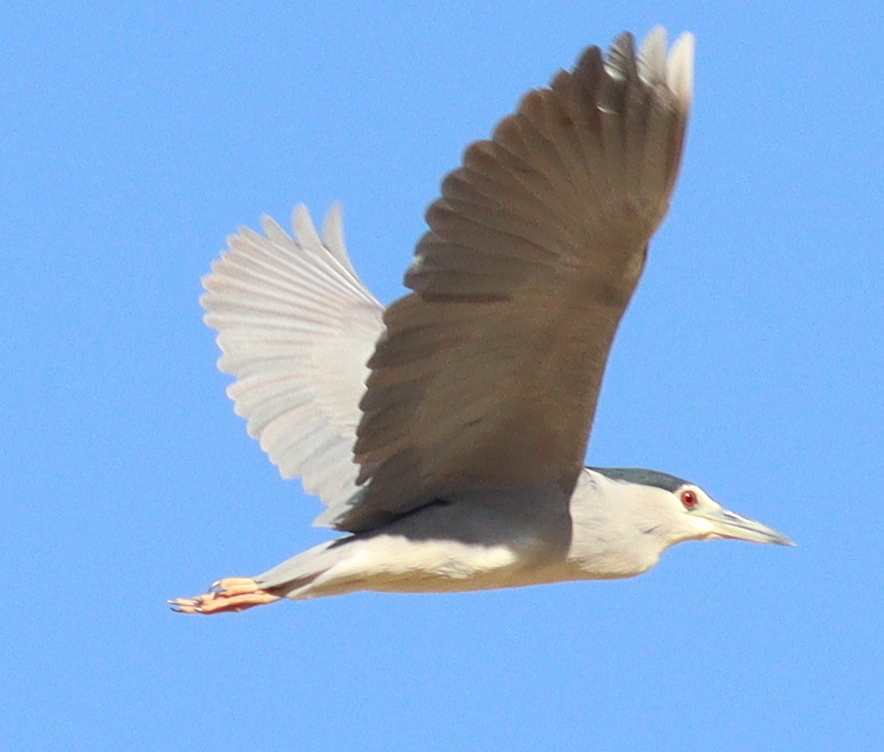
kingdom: Animalia
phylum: Chordata
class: Aves
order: Pelecaniformes
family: Ardeidae
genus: Nycticorax
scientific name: Nycticorax nycticorax
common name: Black-crowned night heron
